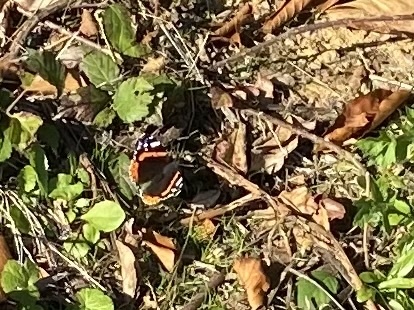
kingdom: Animalia
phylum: Arthropoda
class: Insecta
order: Lepidoptera
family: Nymphalidae
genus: Vanessa
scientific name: Vanessa atalanta
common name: Red admiral
